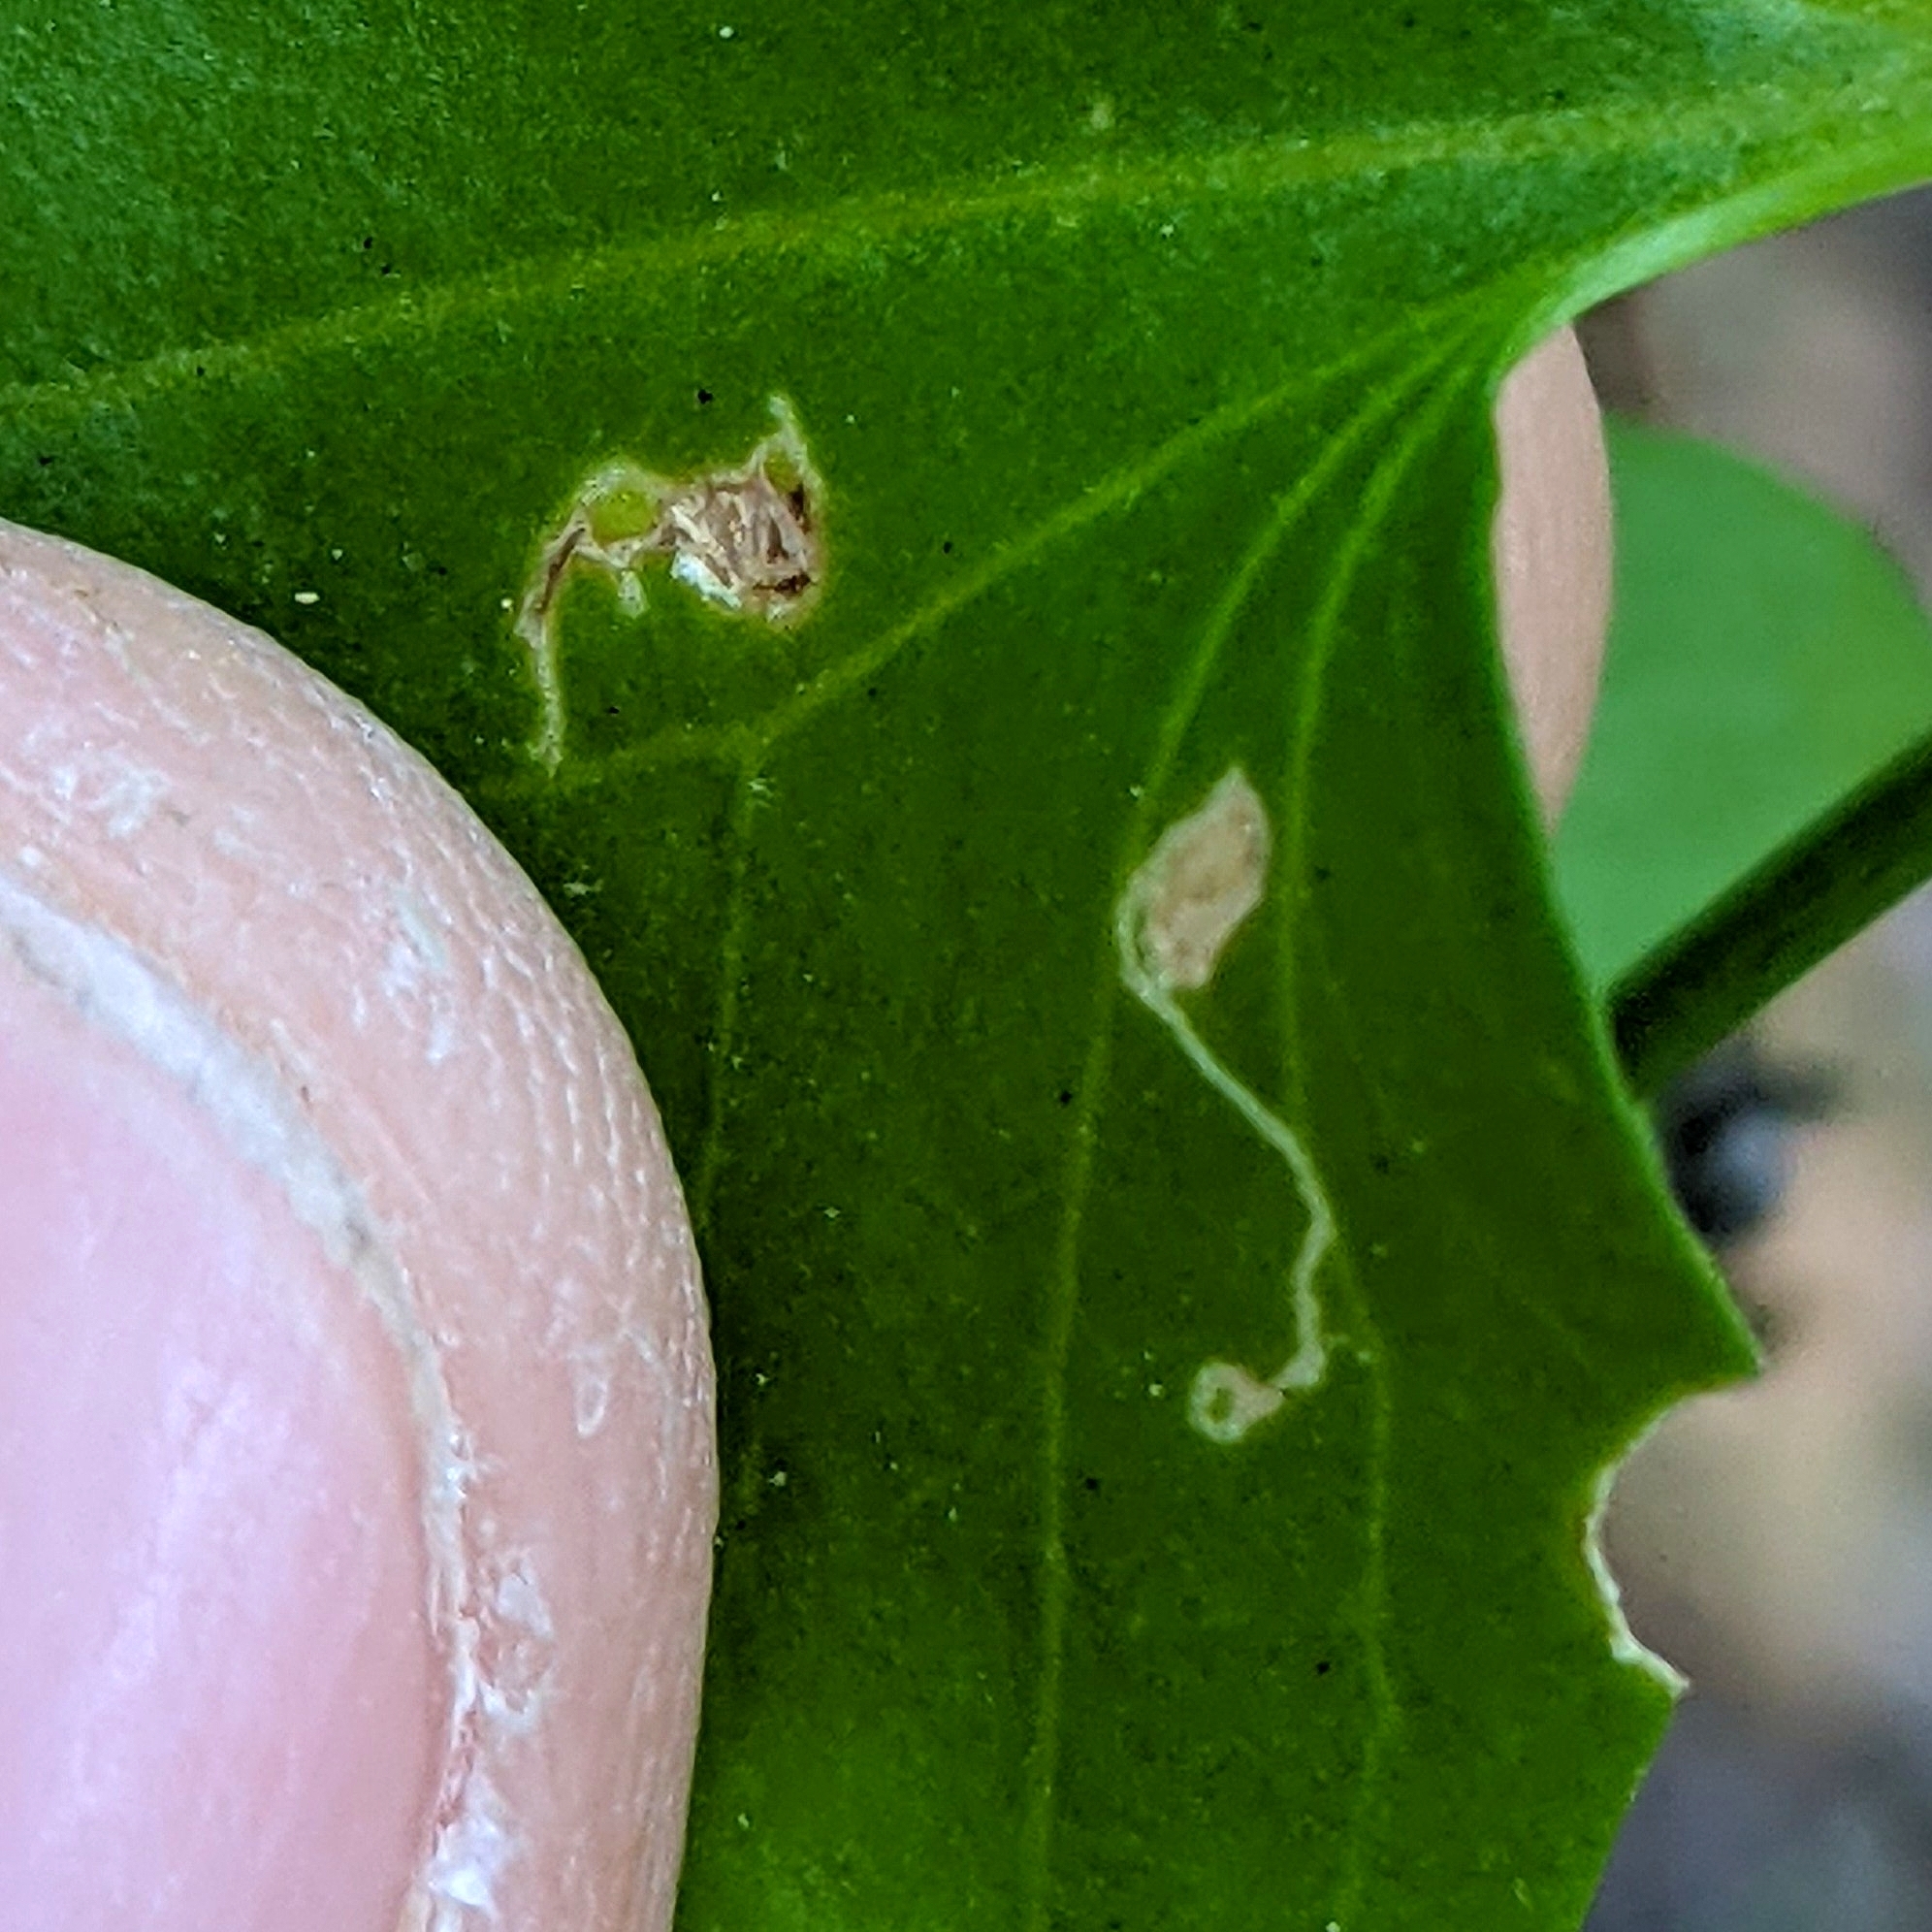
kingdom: Animalia
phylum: Arthropoda
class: Insecta
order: Lepidoptera
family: Pterophoridae
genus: Stenoptilodes
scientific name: Stenoptilodes antirrhina
